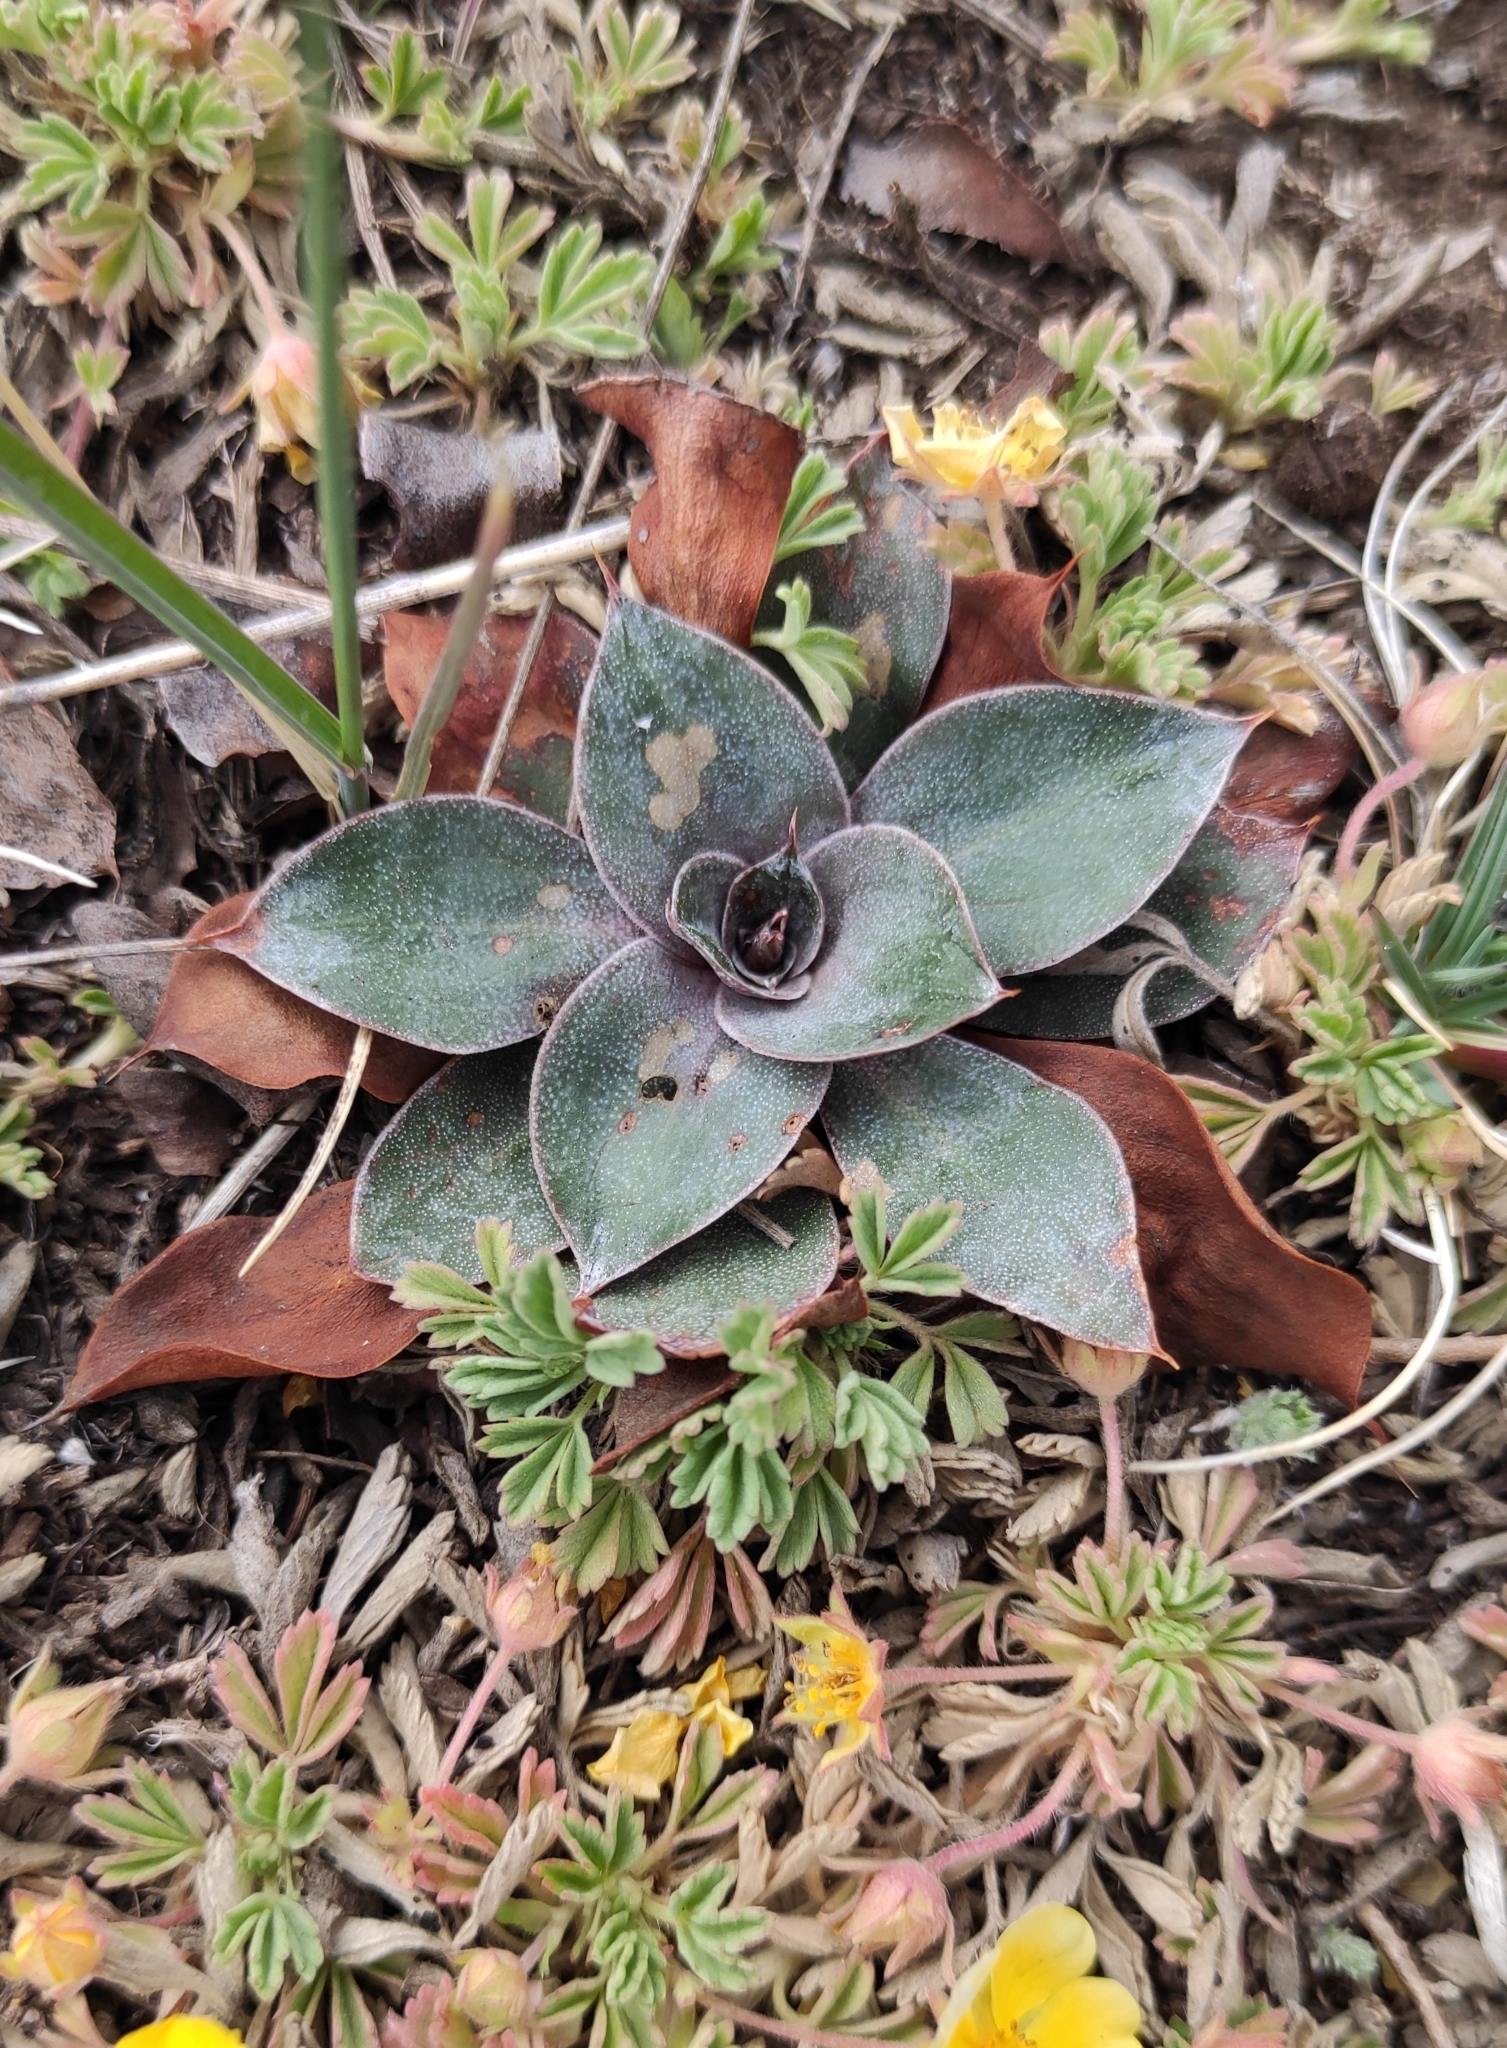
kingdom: Plantae
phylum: Tracheophyta
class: Magnoliopsida
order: Caryophyllales
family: Plumbaginaceae
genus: Goniolimon
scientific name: Goniolimon speciosum
